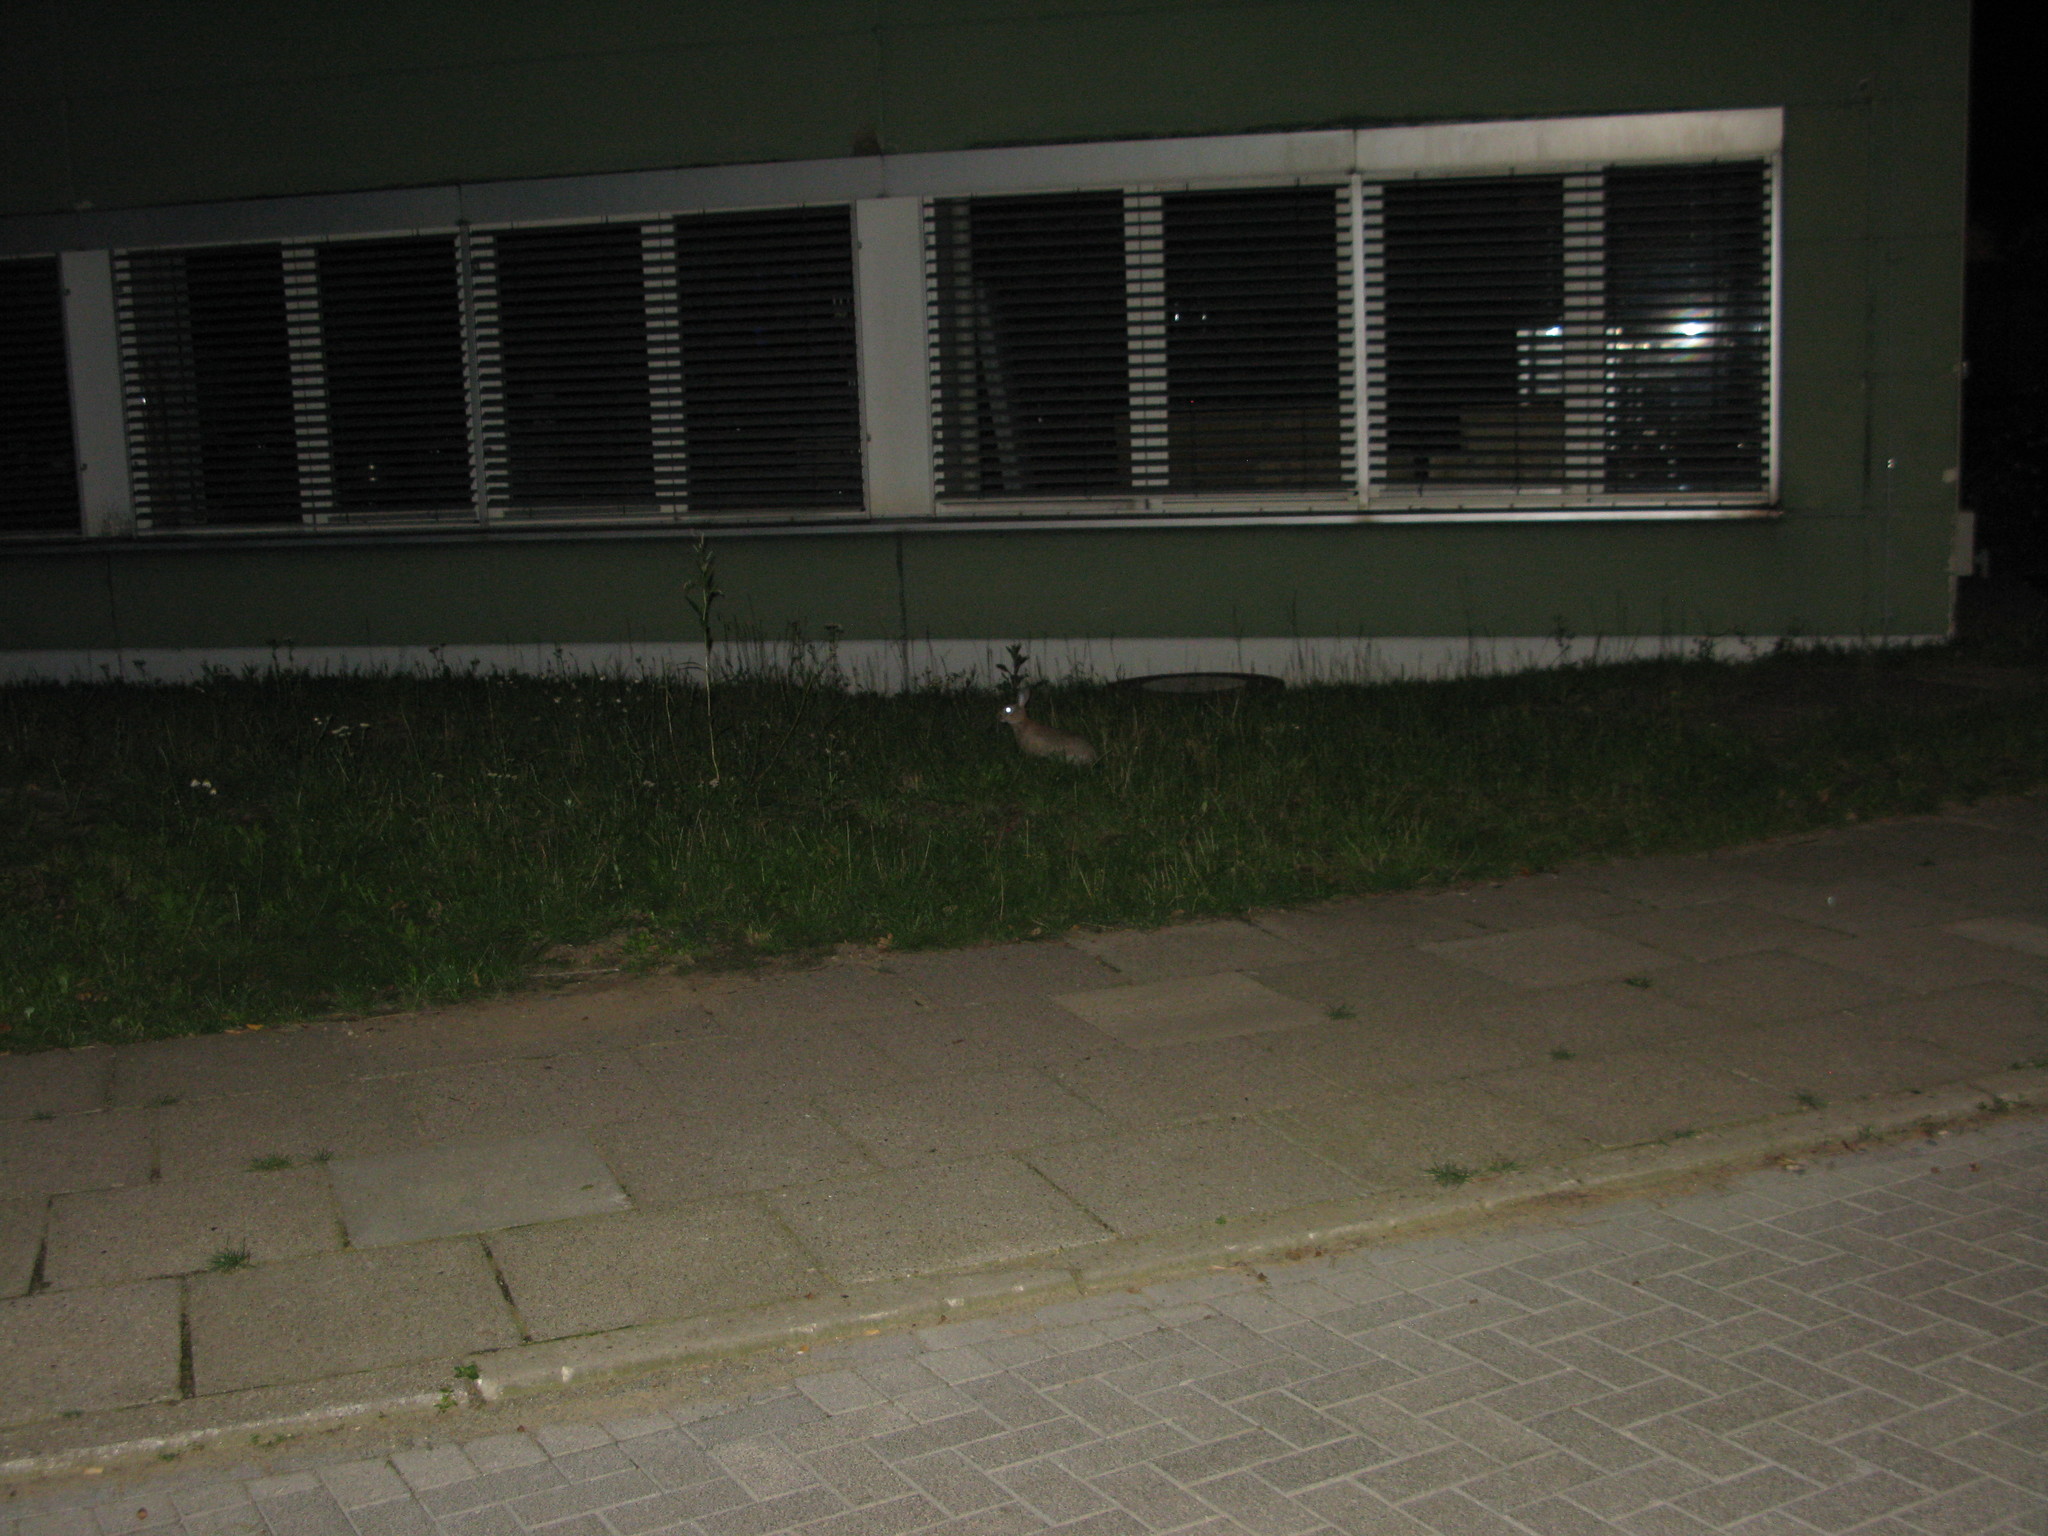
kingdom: Animalia
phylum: Chordata
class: Mammalia
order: Lagomorpha
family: Leporidae
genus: Oryctolagus
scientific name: Oryctolagus cuniculus
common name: European rabbit
